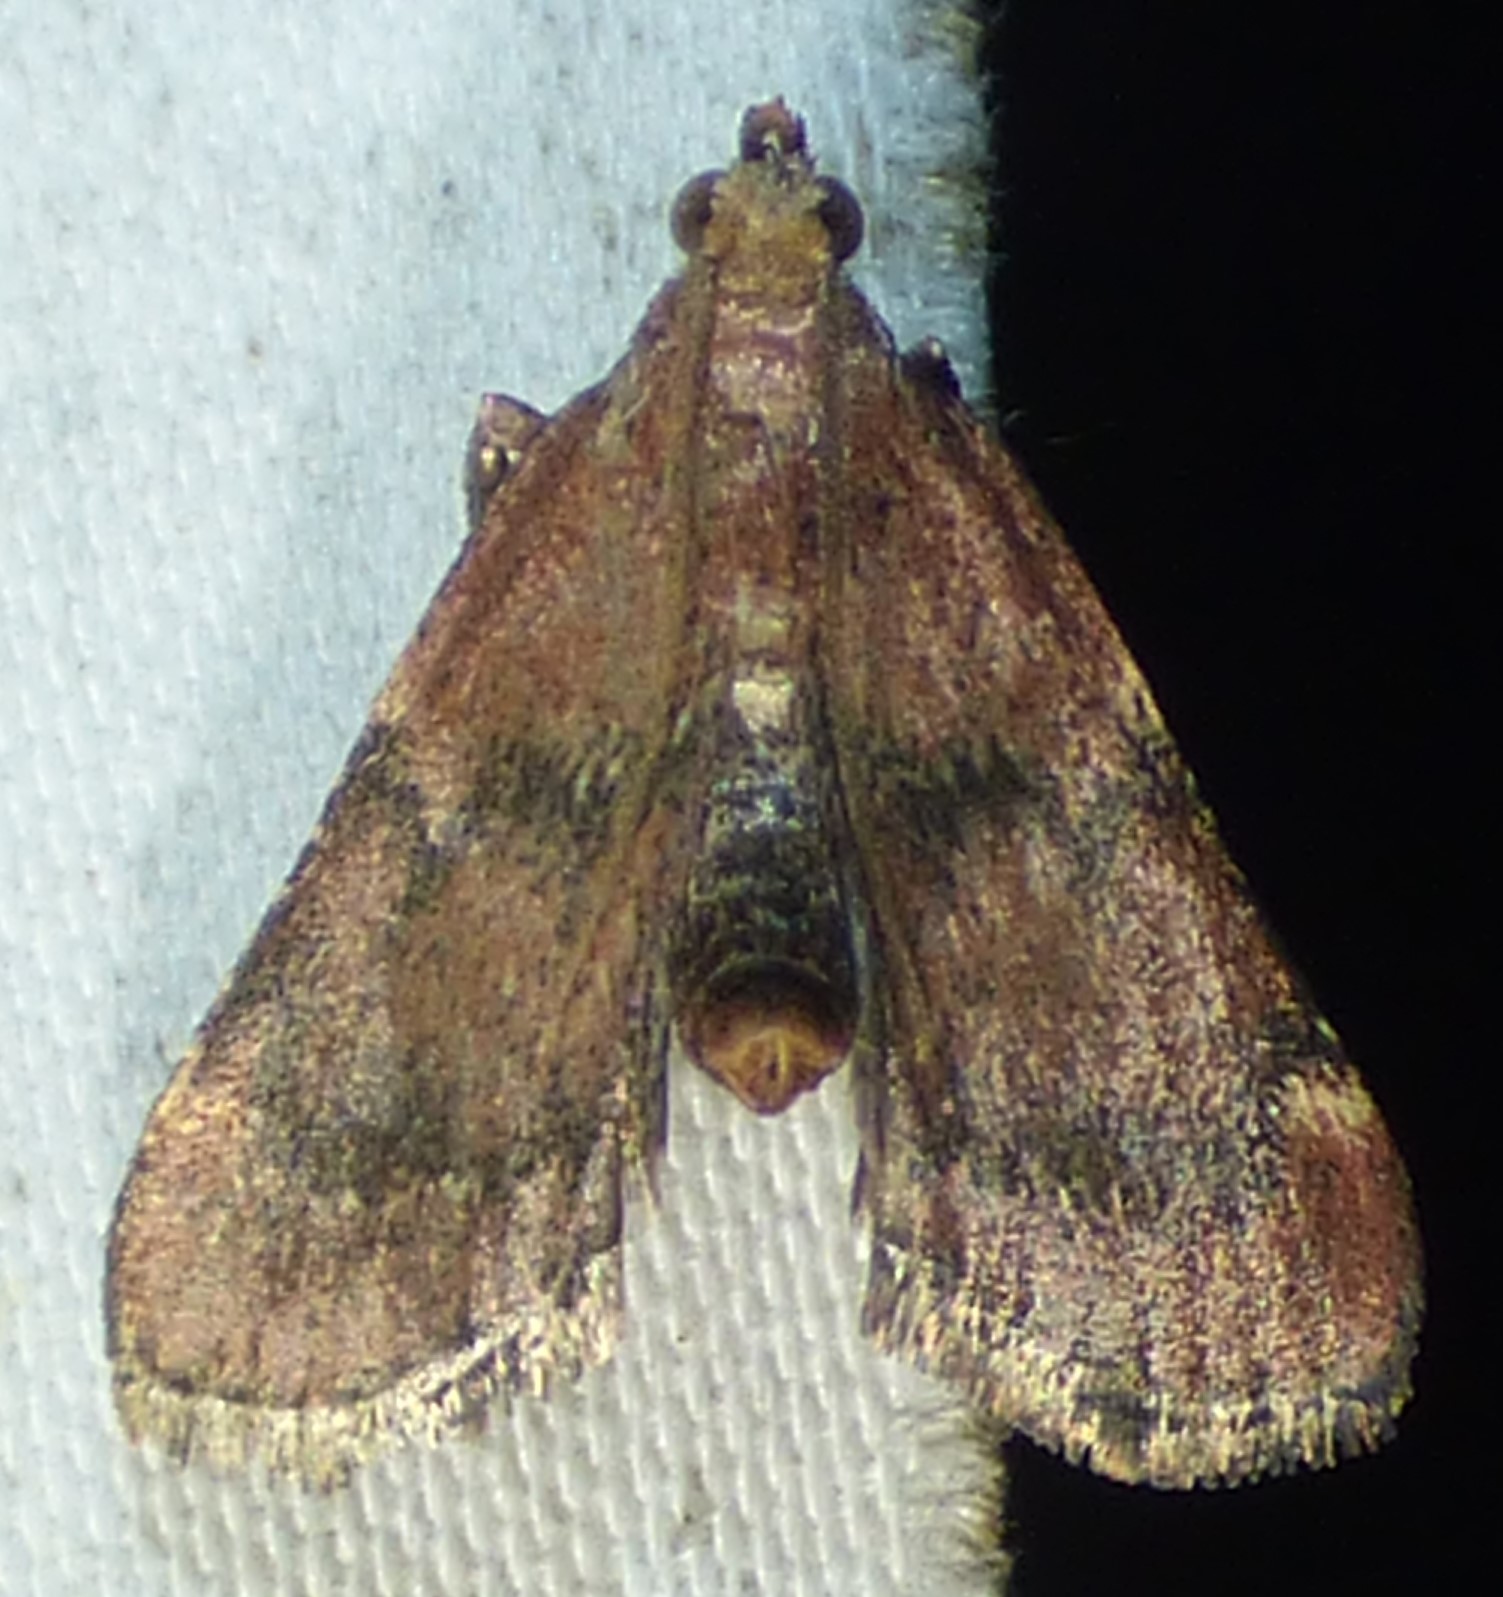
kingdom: Animalia
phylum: Arthropoda
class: Insecta
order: Lepidoptera
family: Pyralidae
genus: Hypsopygia
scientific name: Hypsopygia intermedialis
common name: Red-shawled moth
